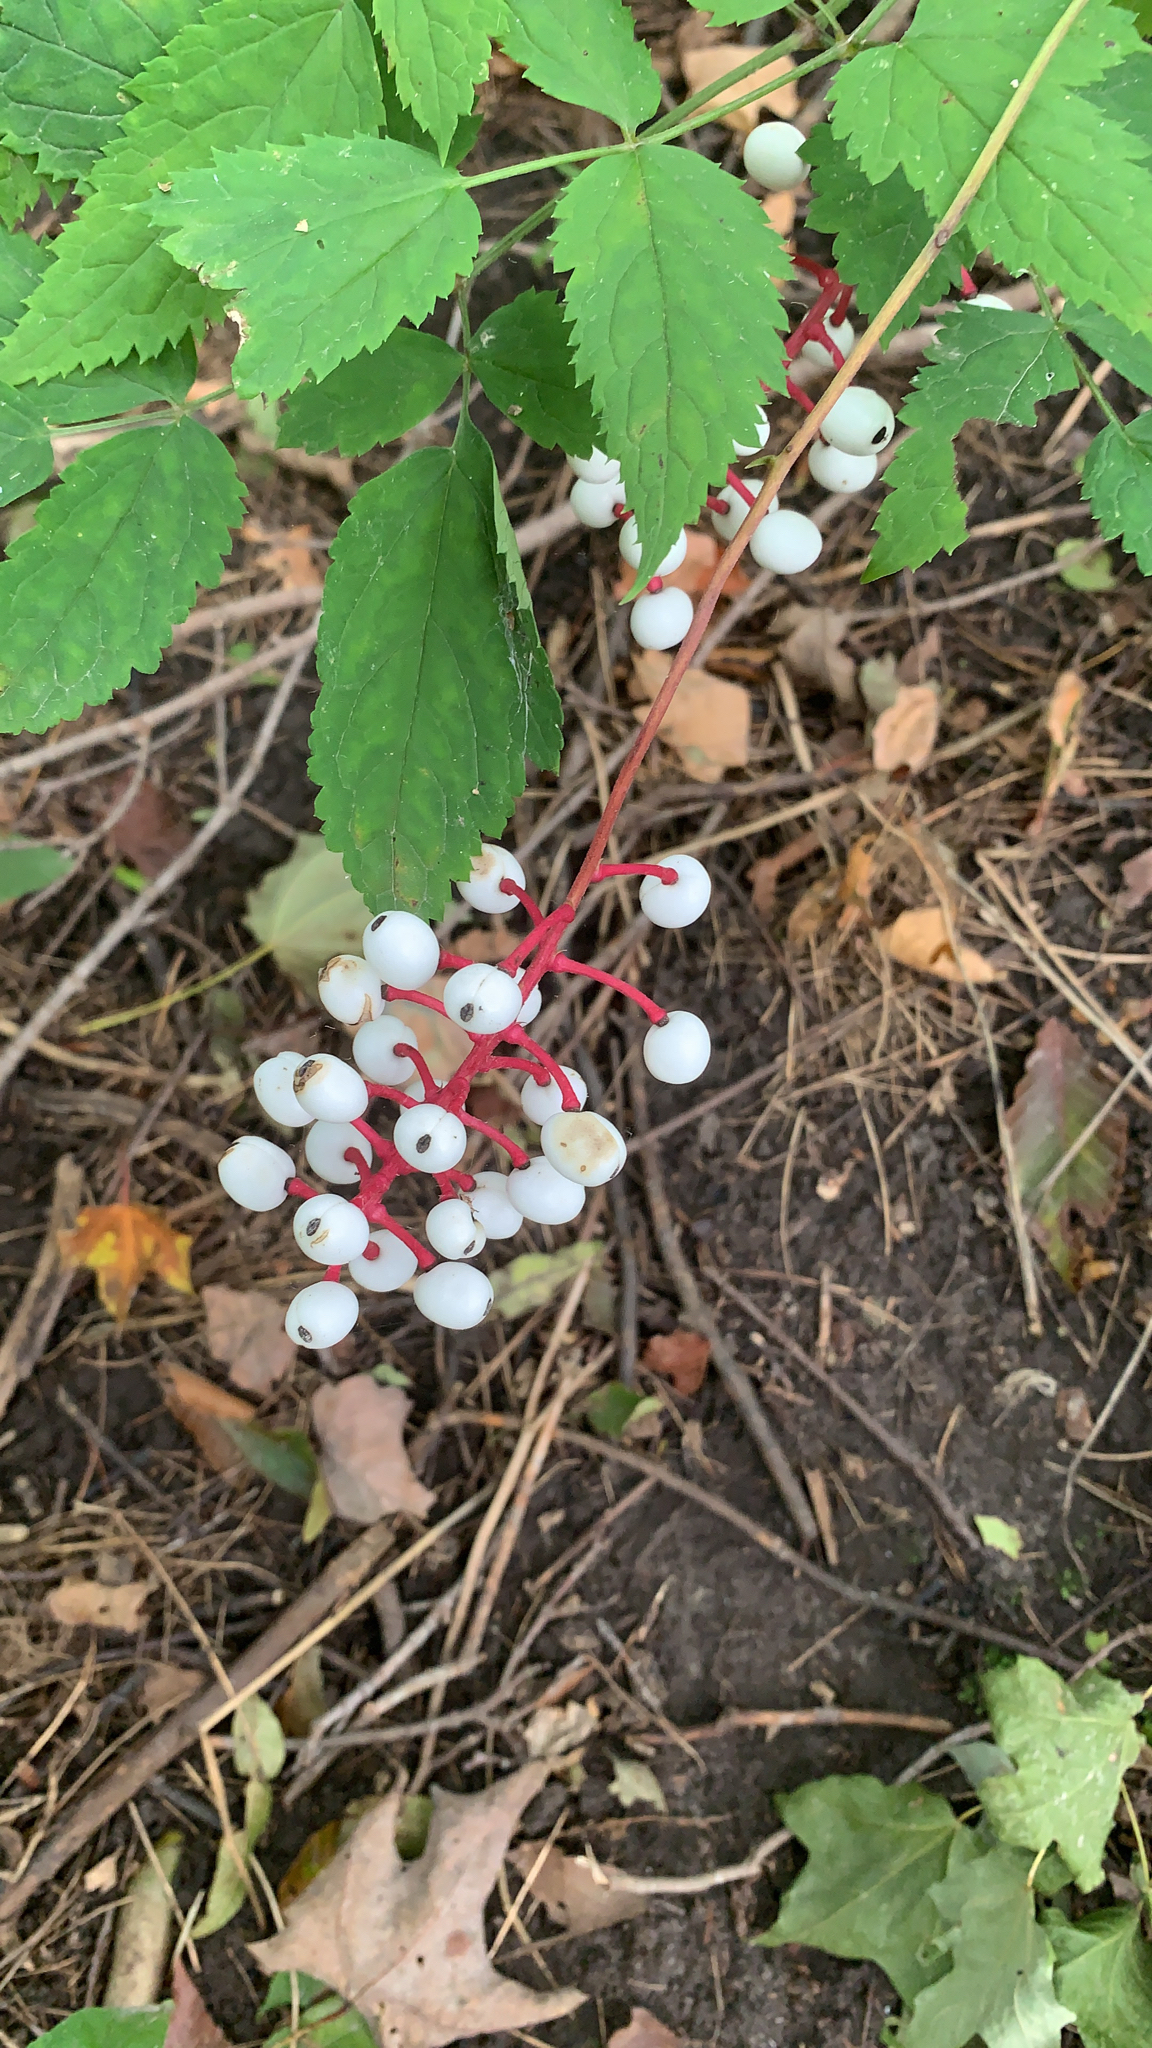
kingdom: Plantae
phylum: Tracheophyta
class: Magnoliopsida
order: Ranunculales
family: Ranunculaceae
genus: Actaea
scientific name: Actaea pachypoda
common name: Doll's-eyes
